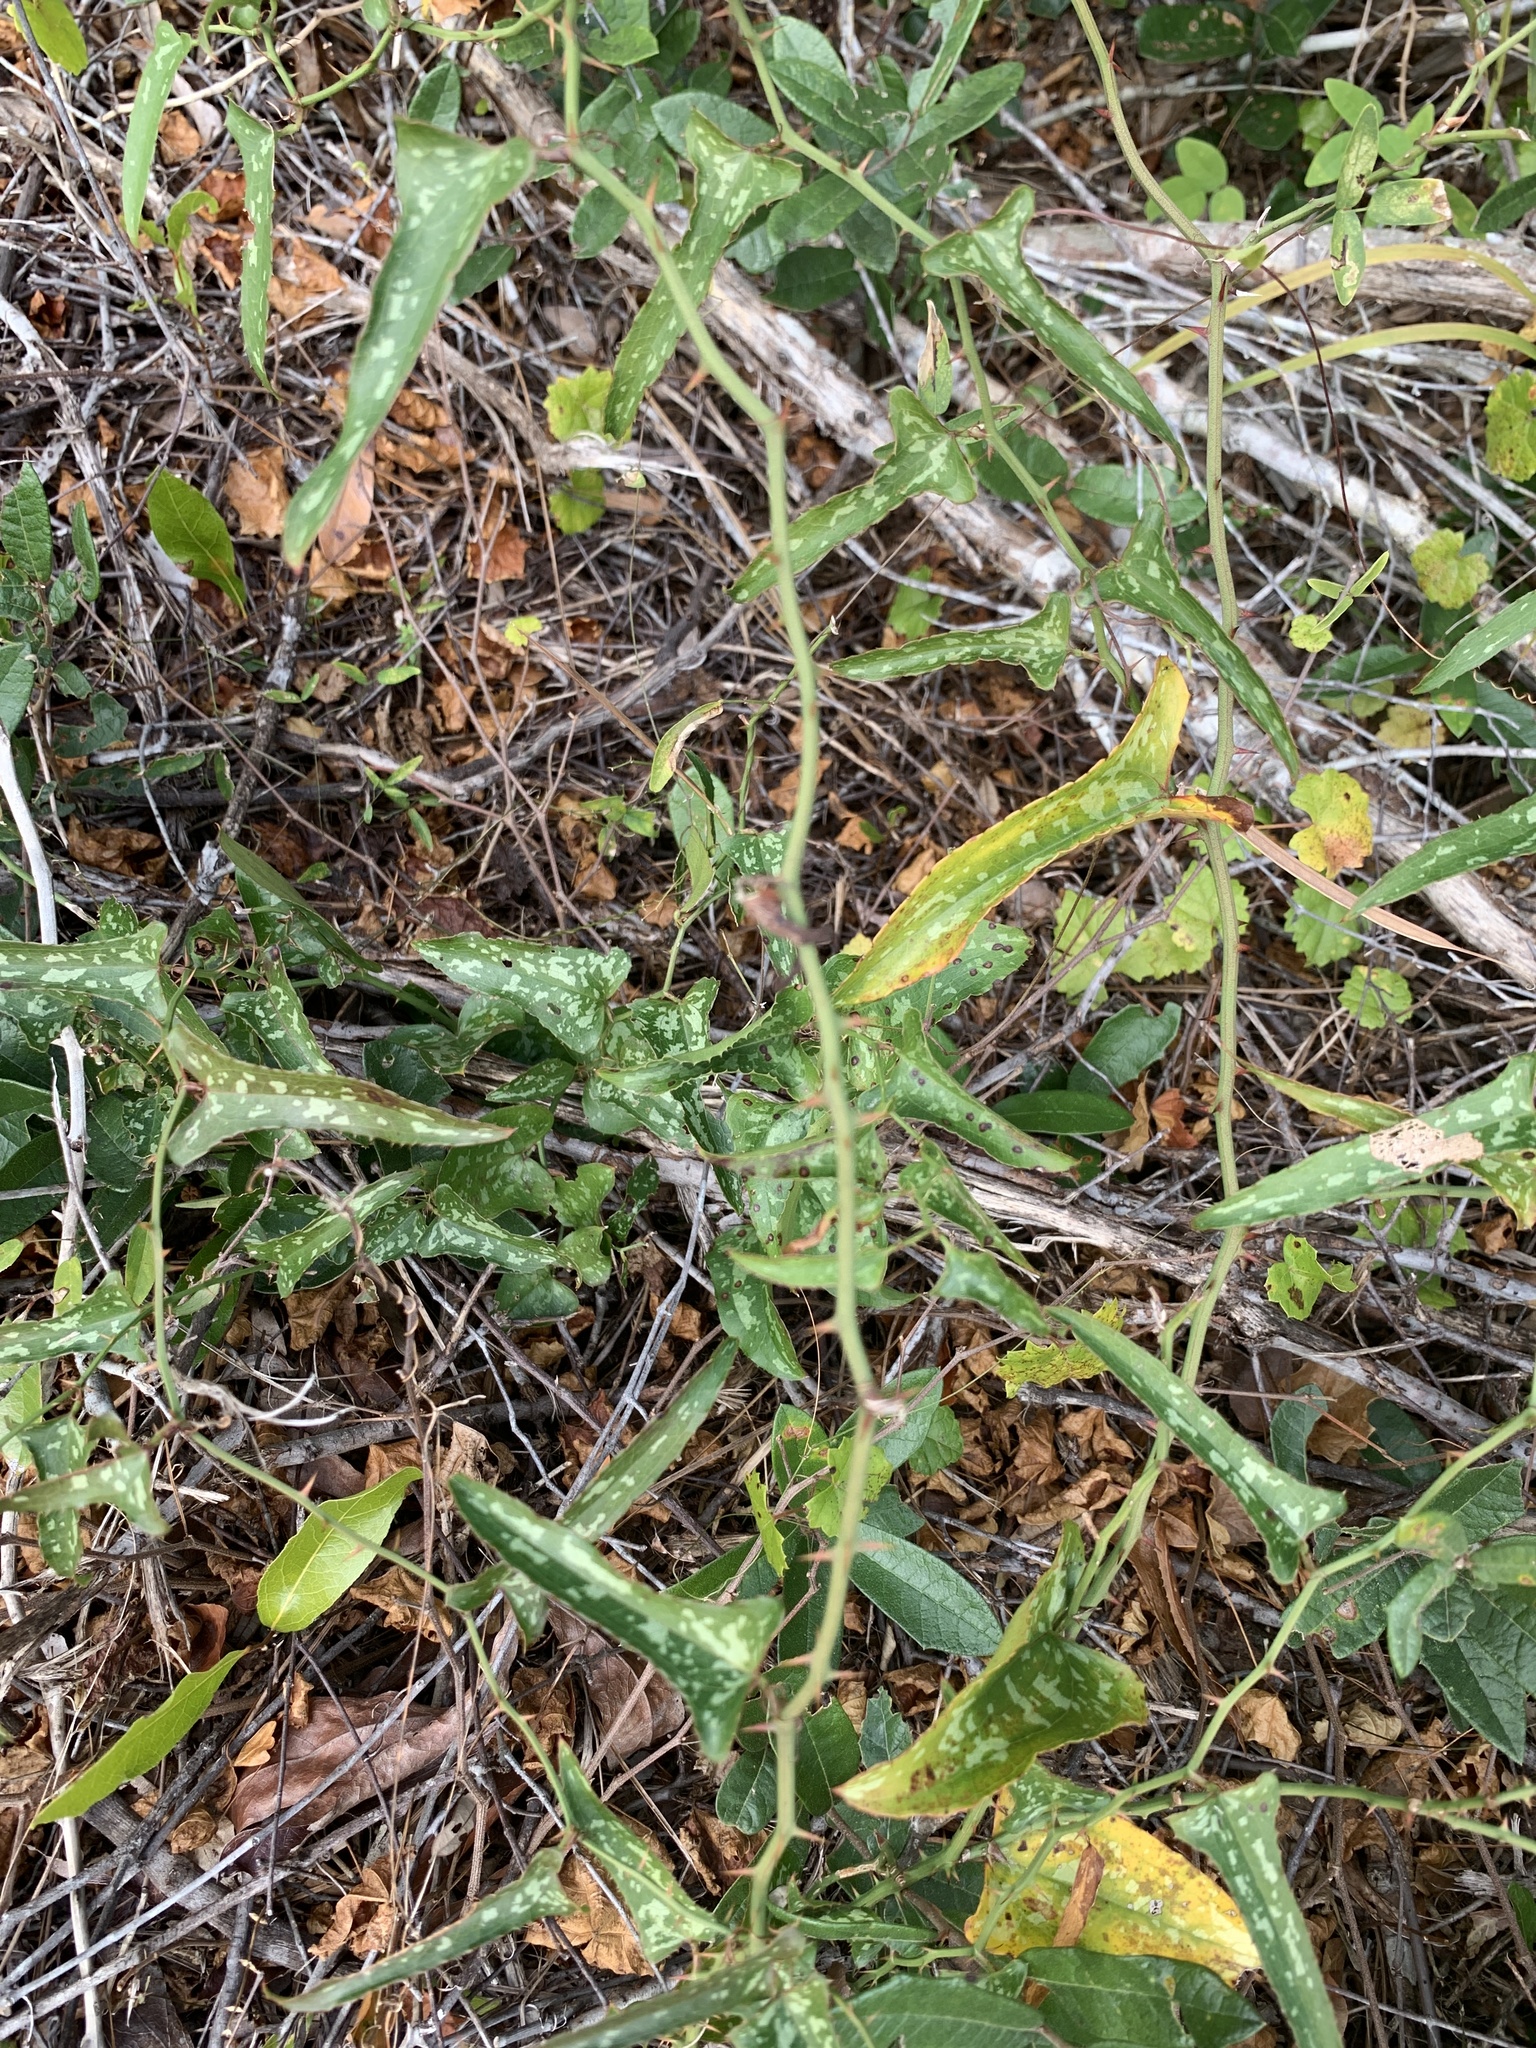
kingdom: Plantae
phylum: Tracheophyta
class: Liliopsida
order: Liliales
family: Smilacaceae
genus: Smilax
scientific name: Smilax bona-nox
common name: Catbrier
